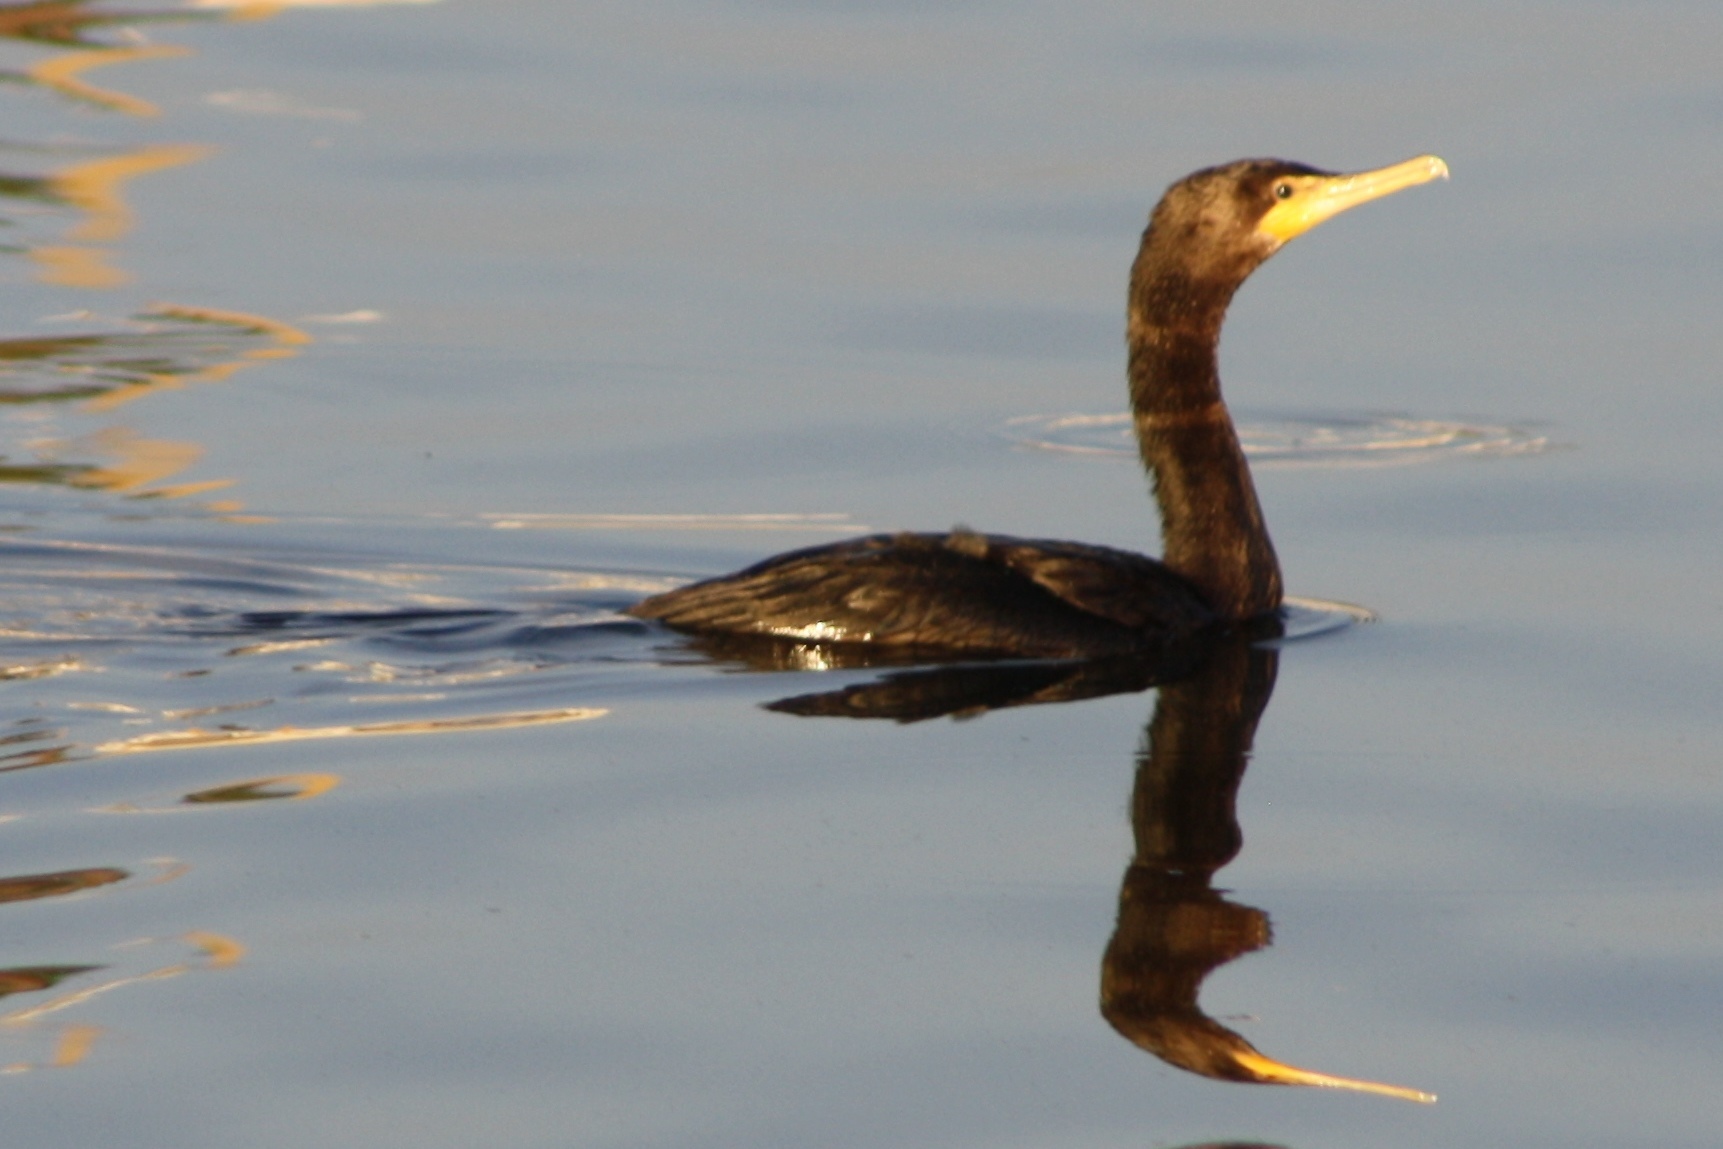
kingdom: Animalia
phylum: Chordata
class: Aves
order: Suliformes
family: Phalacrocoracidae
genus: Phalacrocorax
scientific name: Phalacrocorax auritus
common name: Double-crested cormorant
